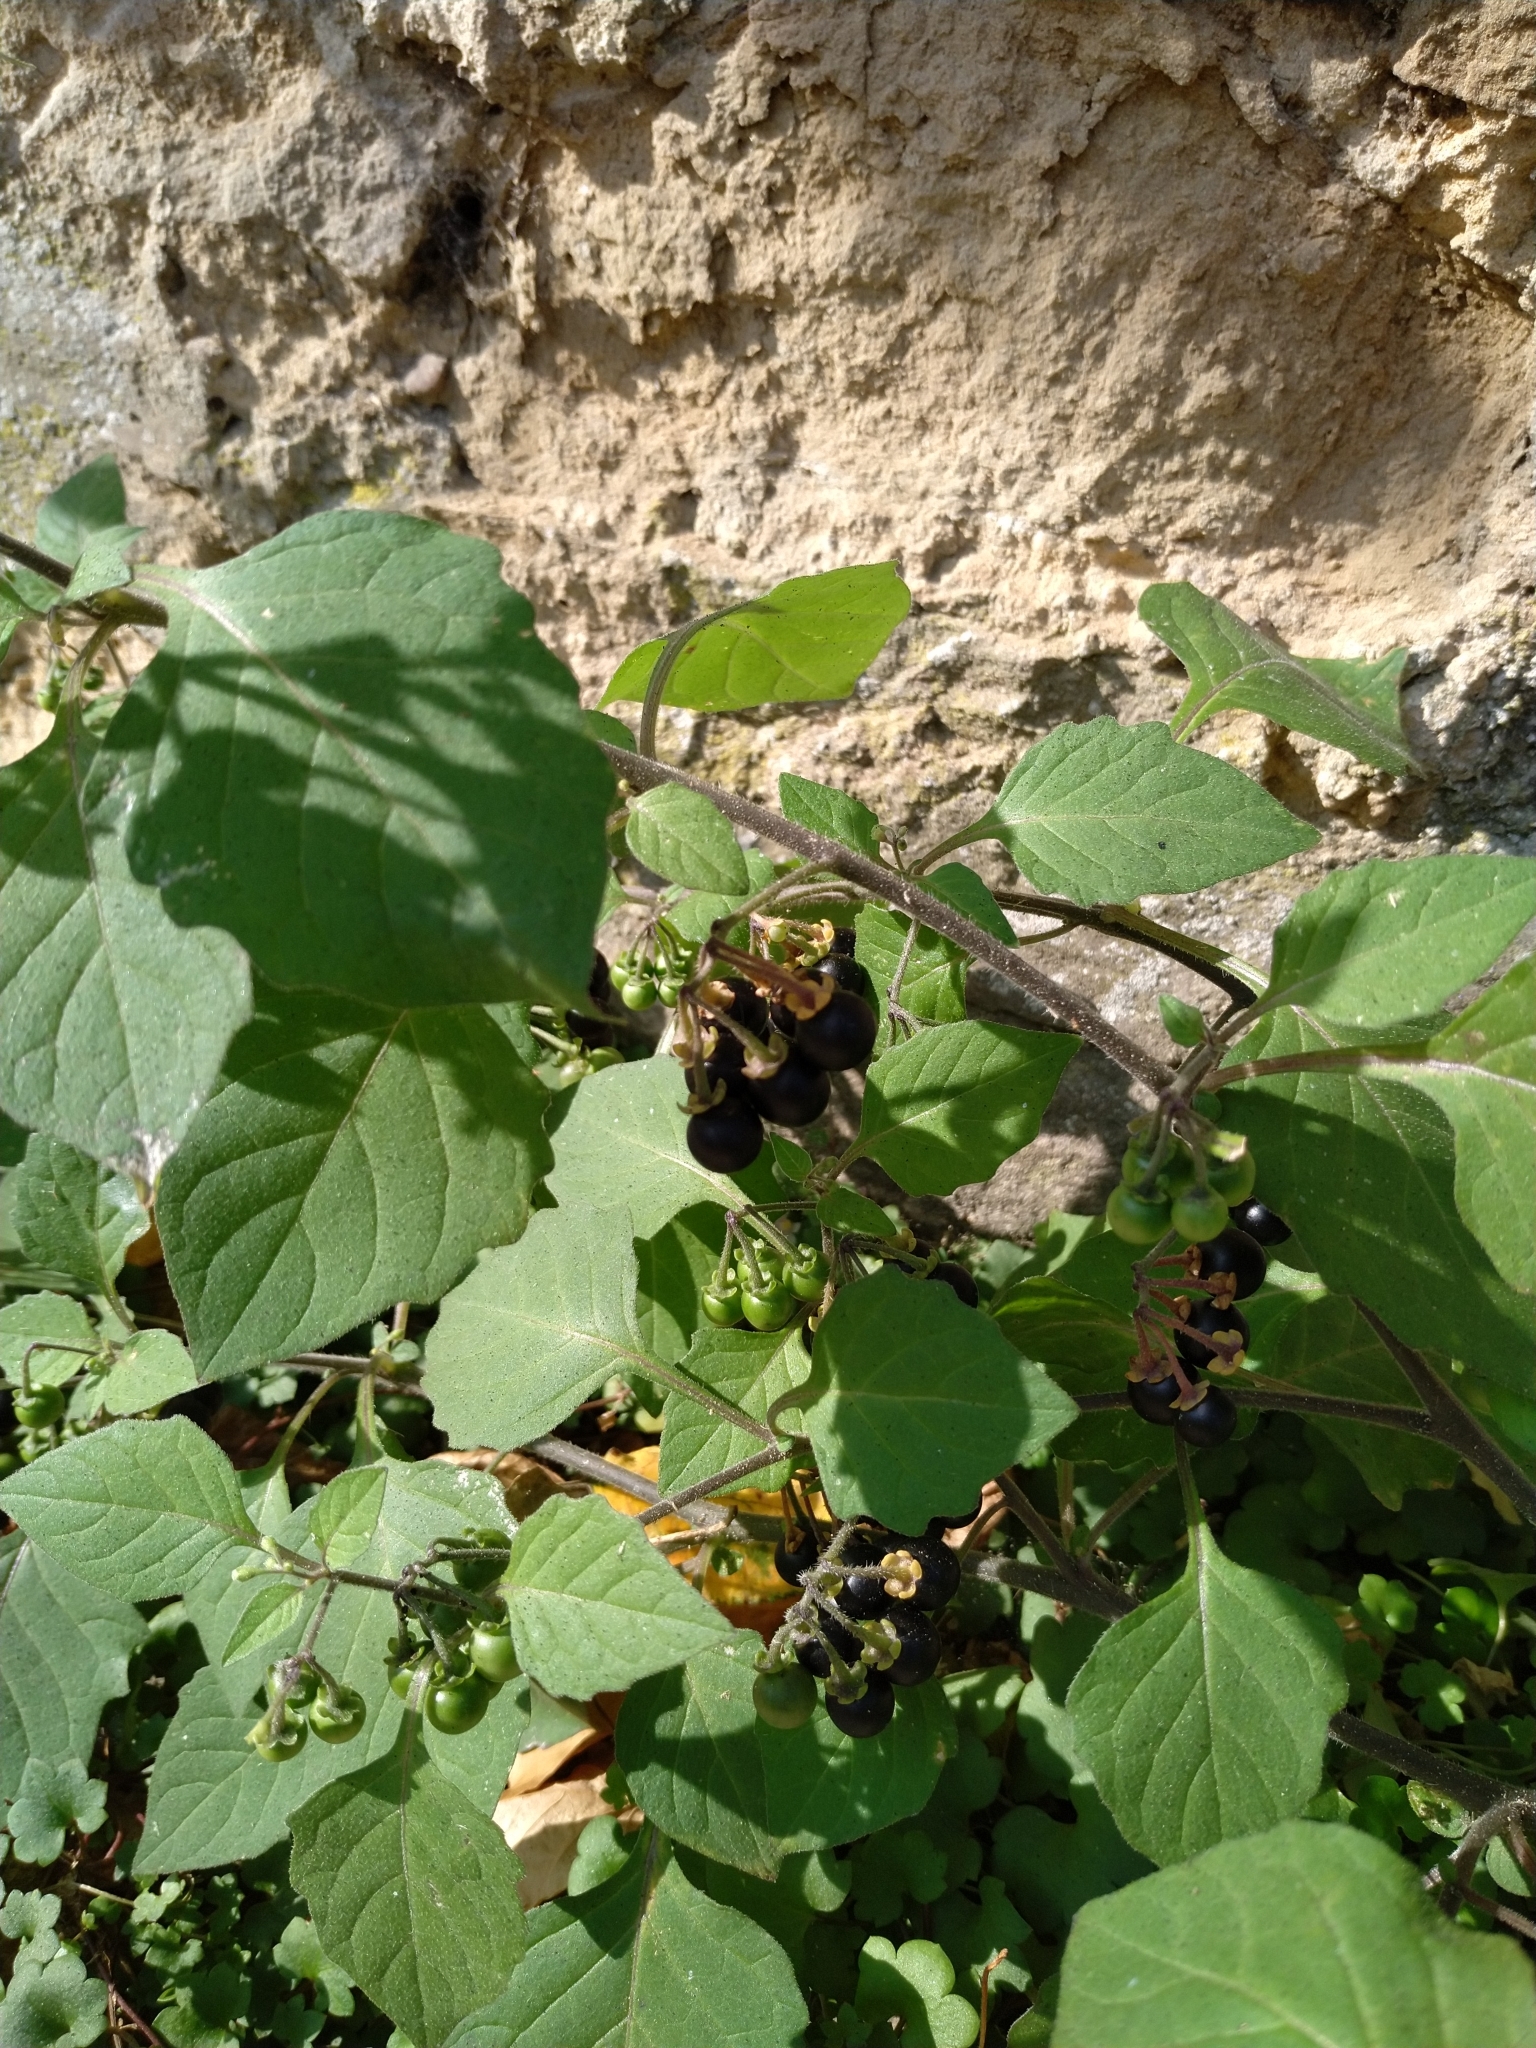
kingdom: Plantae
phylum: Tracheophyta
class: Magnoliopsida
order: Solanales
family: Solanaceae
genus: Solanum
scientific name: Solanum nigrum
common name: Black nightshade
